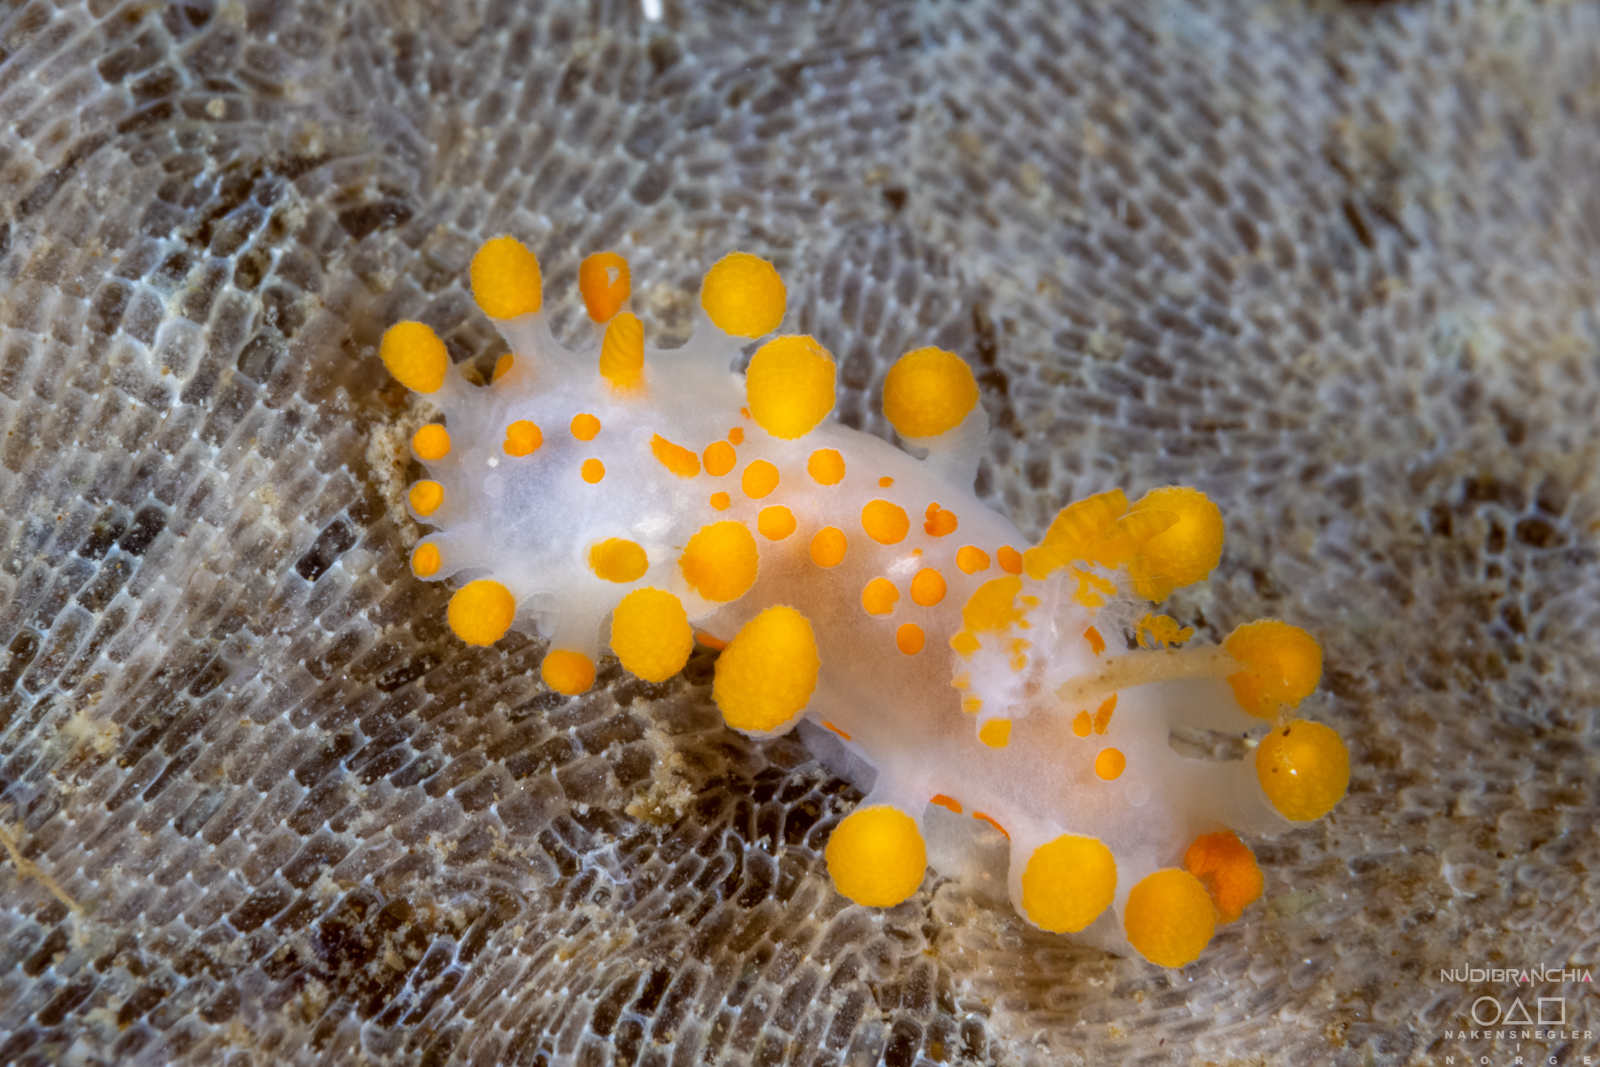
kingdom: Animalia
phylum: Mollusca
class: Gastropoda
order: Nudibranchia
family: Polyceridae
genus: Limacia
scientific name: Limacia clavigera
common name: Orange-clubbed sea slug
